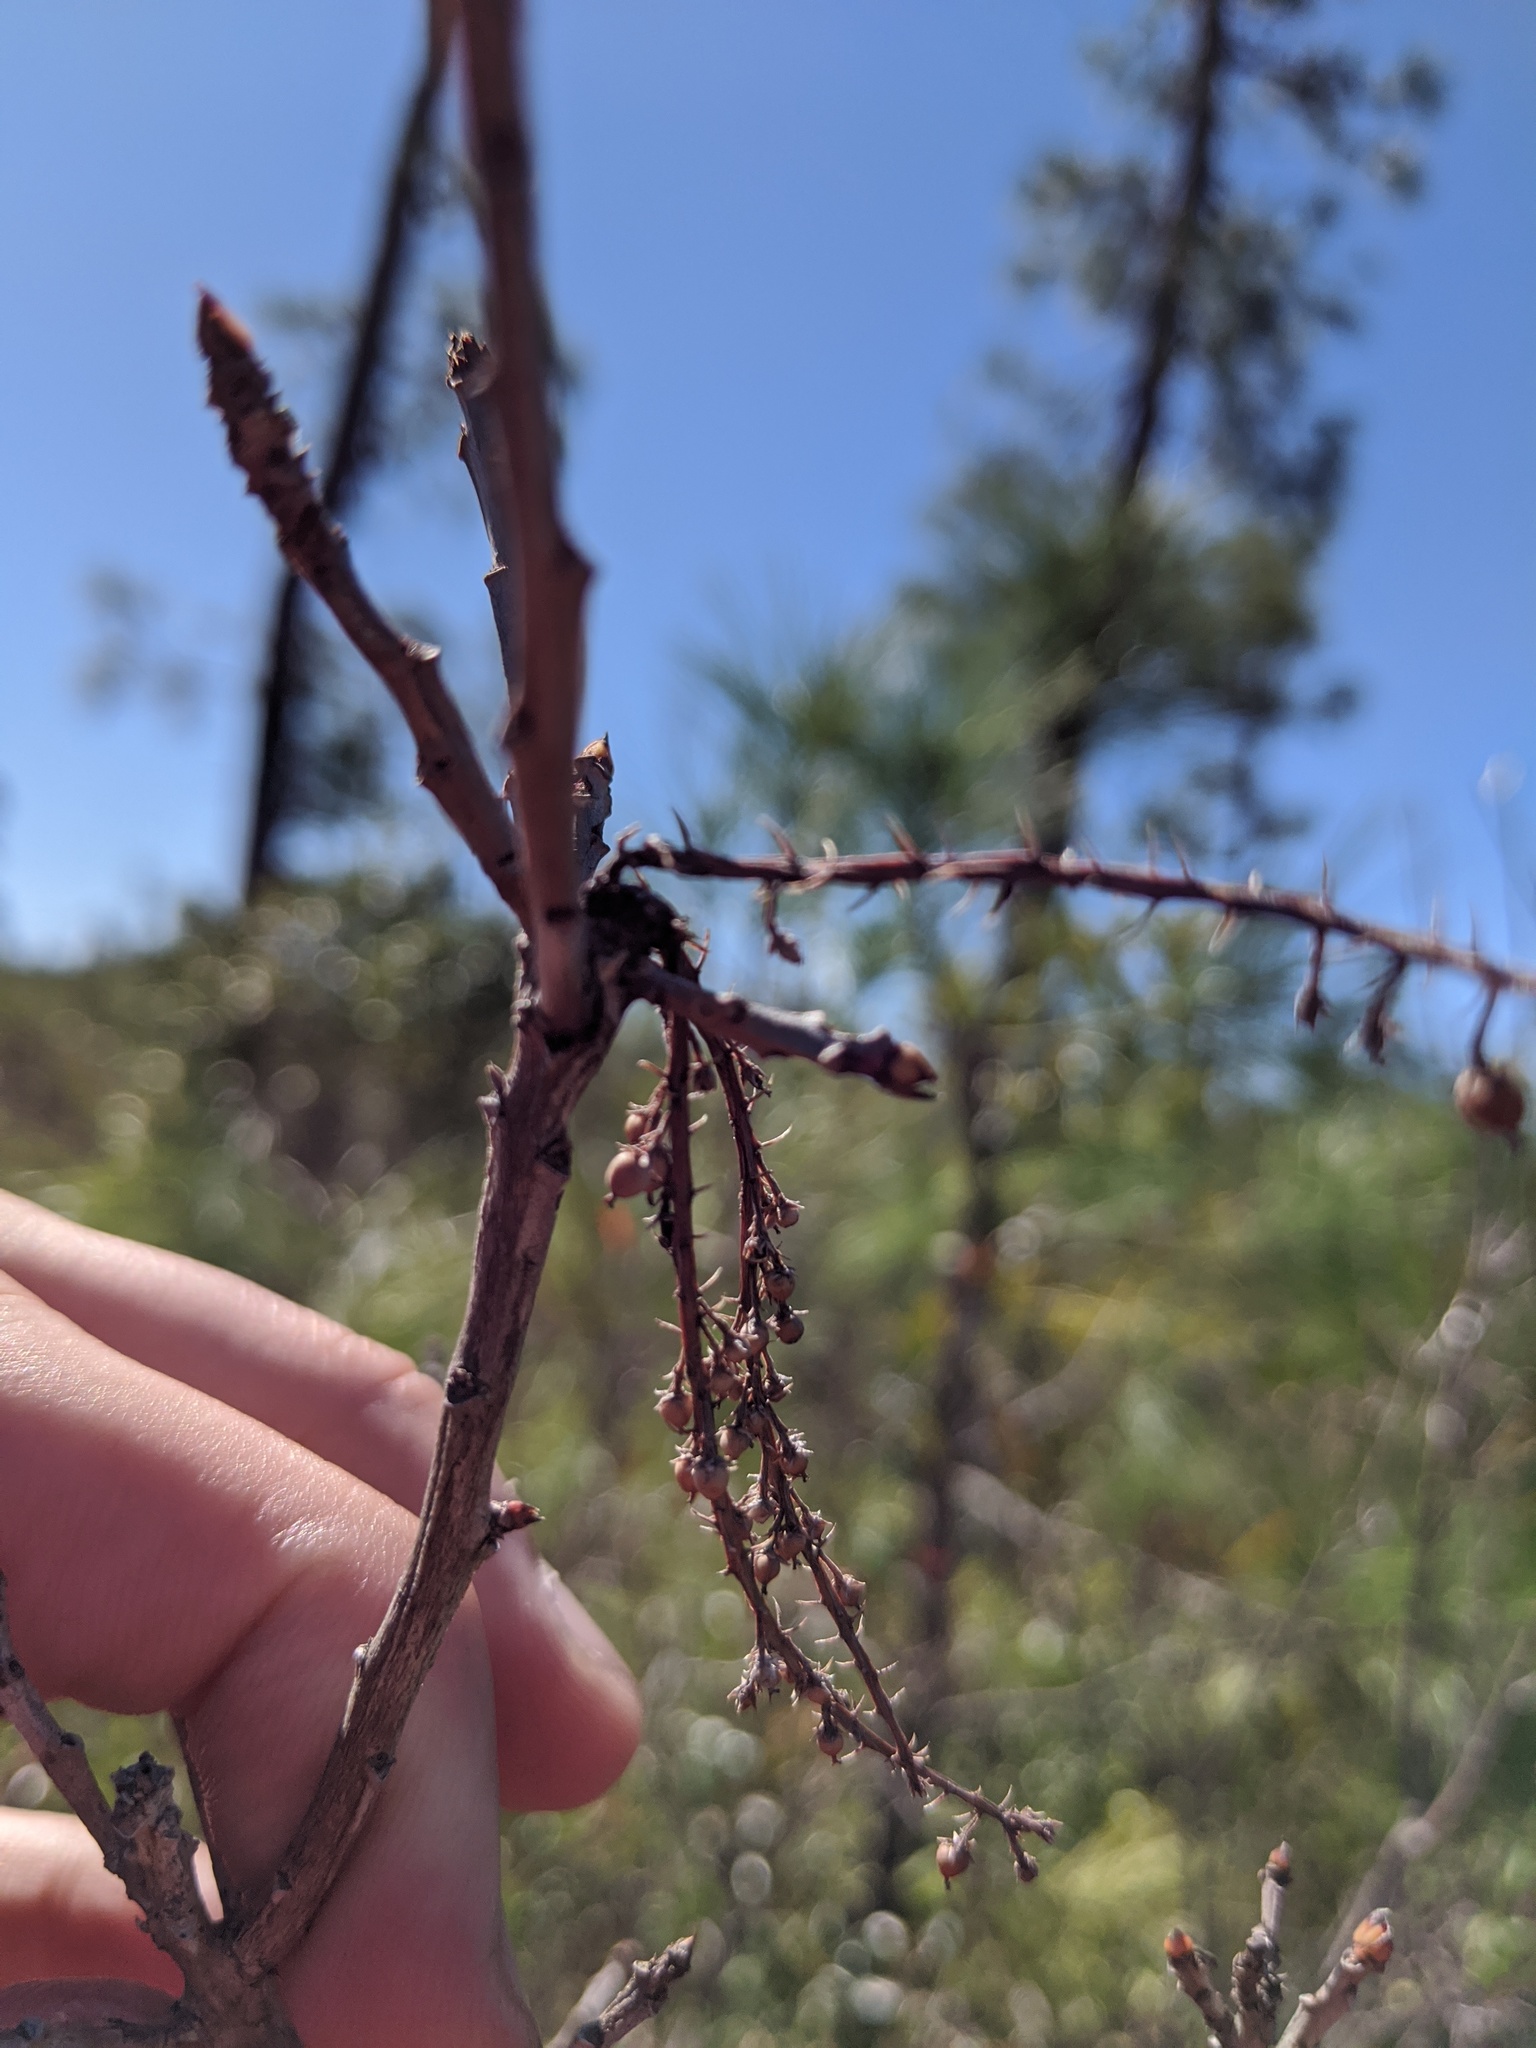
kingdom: Plantae
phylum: Tracheophyta
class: Magnoliopsida
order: Ericales
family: Cyrillaceae
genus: Cyrilla
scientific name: Cyrilla racemiflora
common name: Black titi
